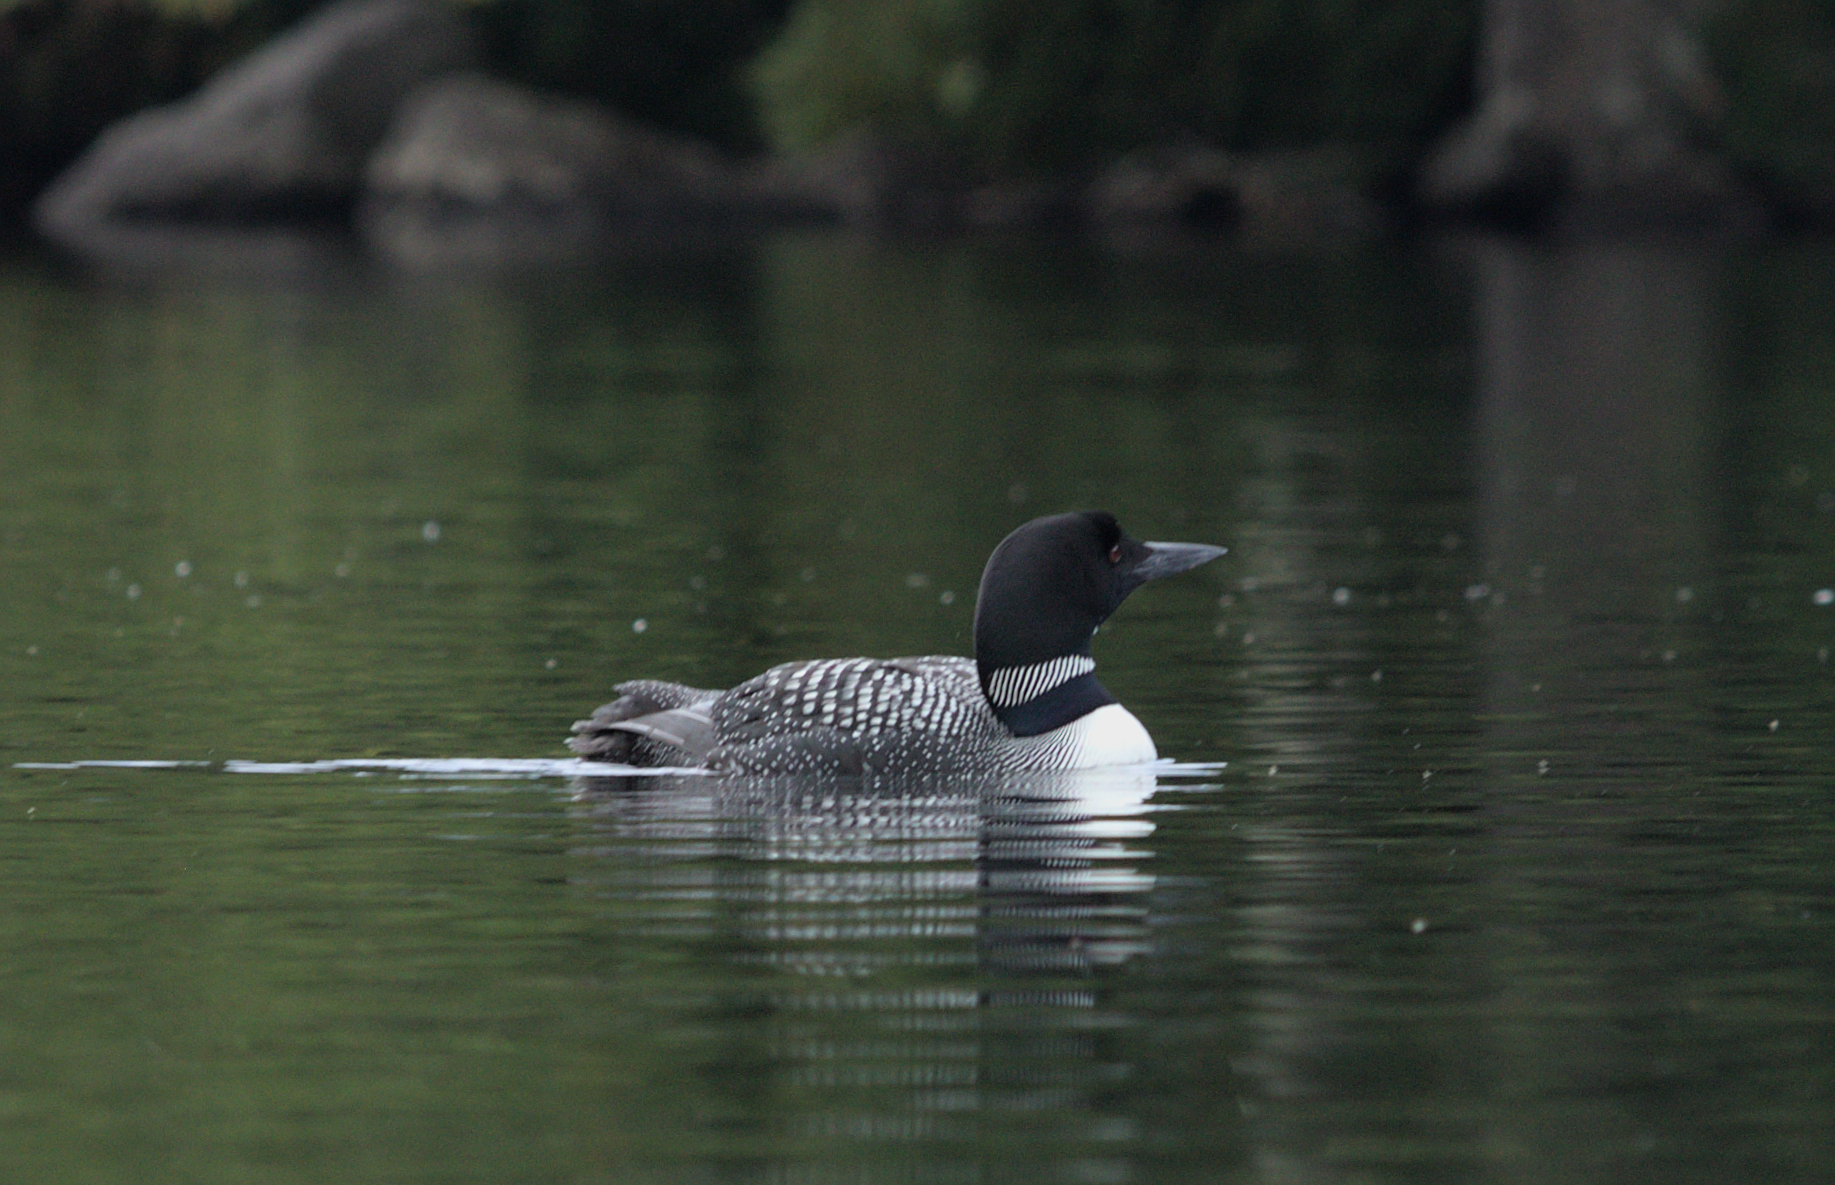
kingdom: Animalia
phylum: Chordata
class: Aves
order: Gaviiformes
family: Gaviidae
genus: Gavia
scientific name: Gavia immer
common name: Common loon
